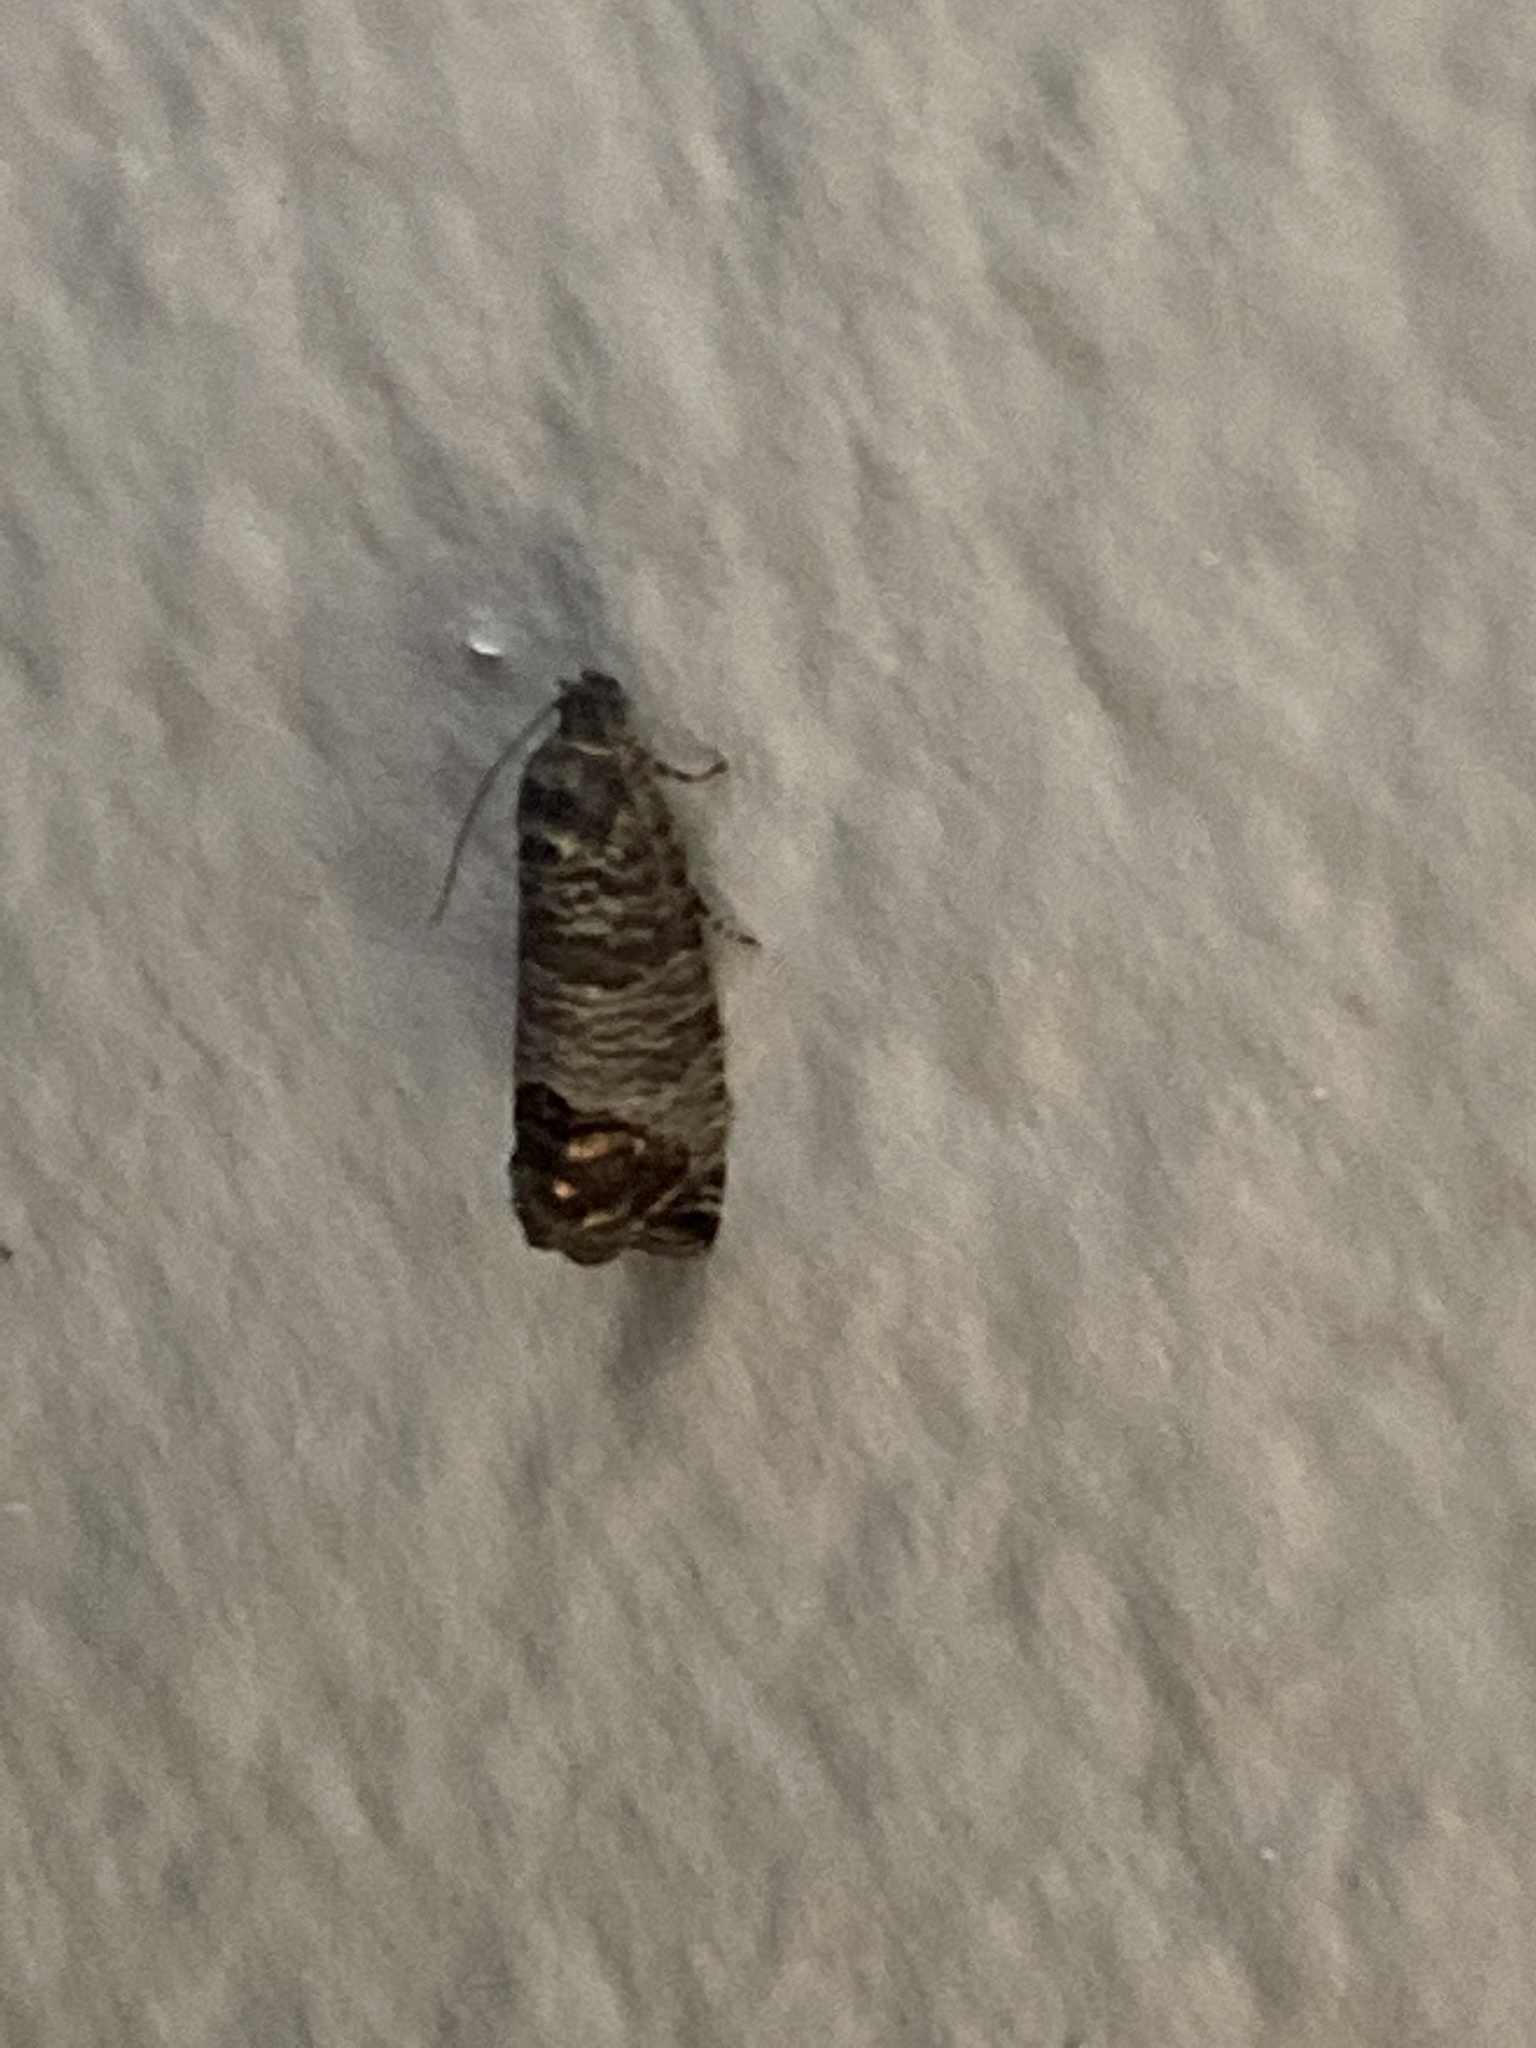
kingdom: Animalia
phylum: Arthropoda
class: Insecta
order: Lepidoptera
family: Tortricidae
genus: Cydia
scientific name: Cydia pomonella
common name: Codling moth
